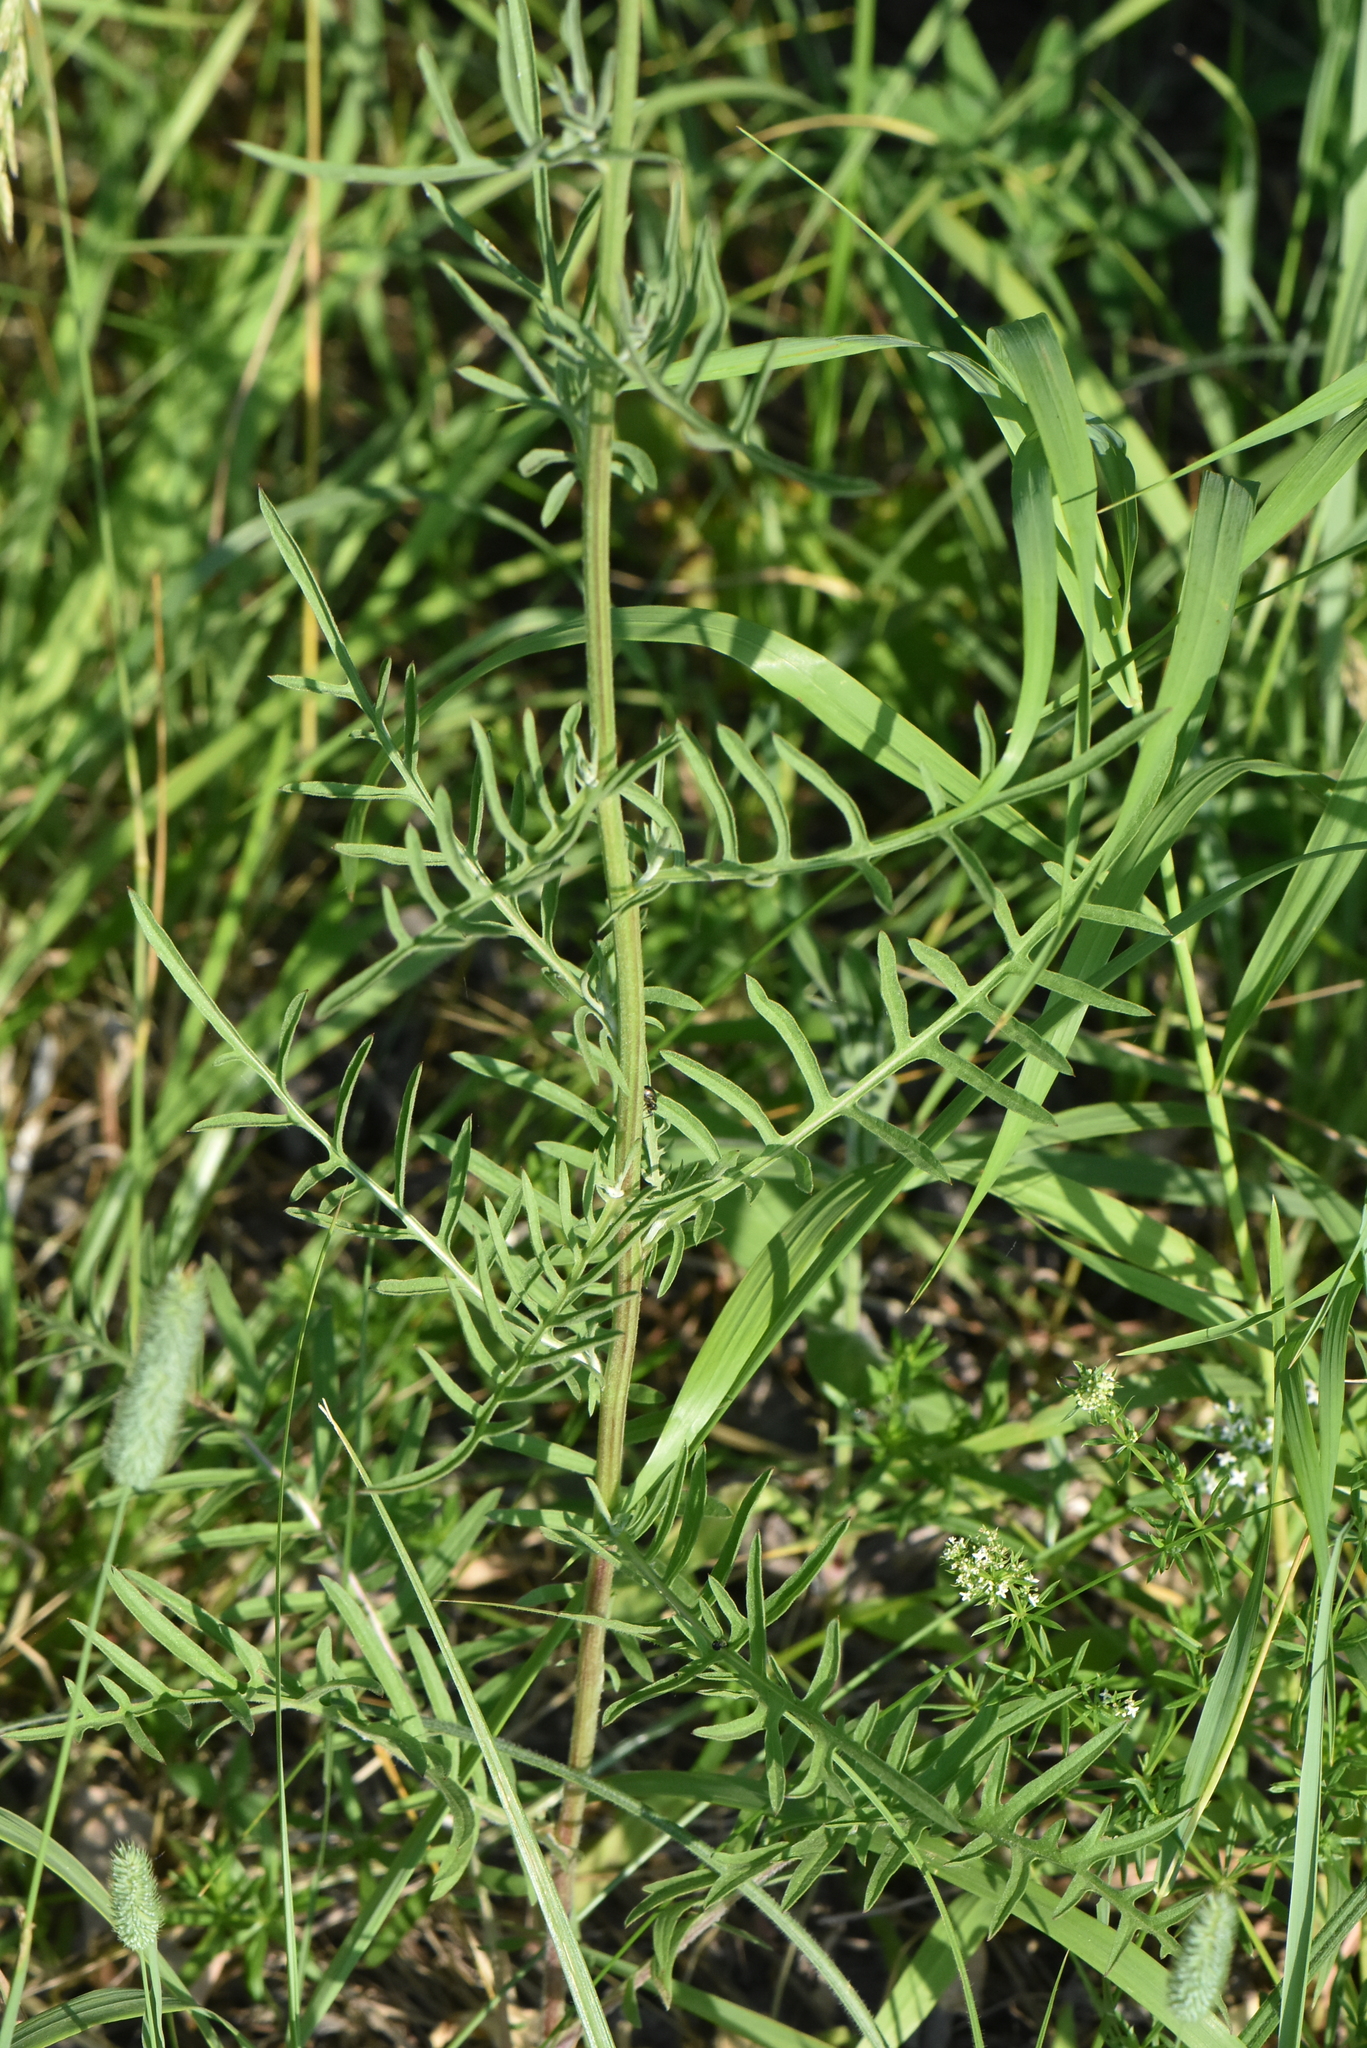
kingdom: Plantae
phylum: Tracheophyta
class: Magnoliopsida
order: Asterales
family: Asteraceae
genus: Centaurea
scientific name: Centaurea scabiosa
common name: Greater knapweed
